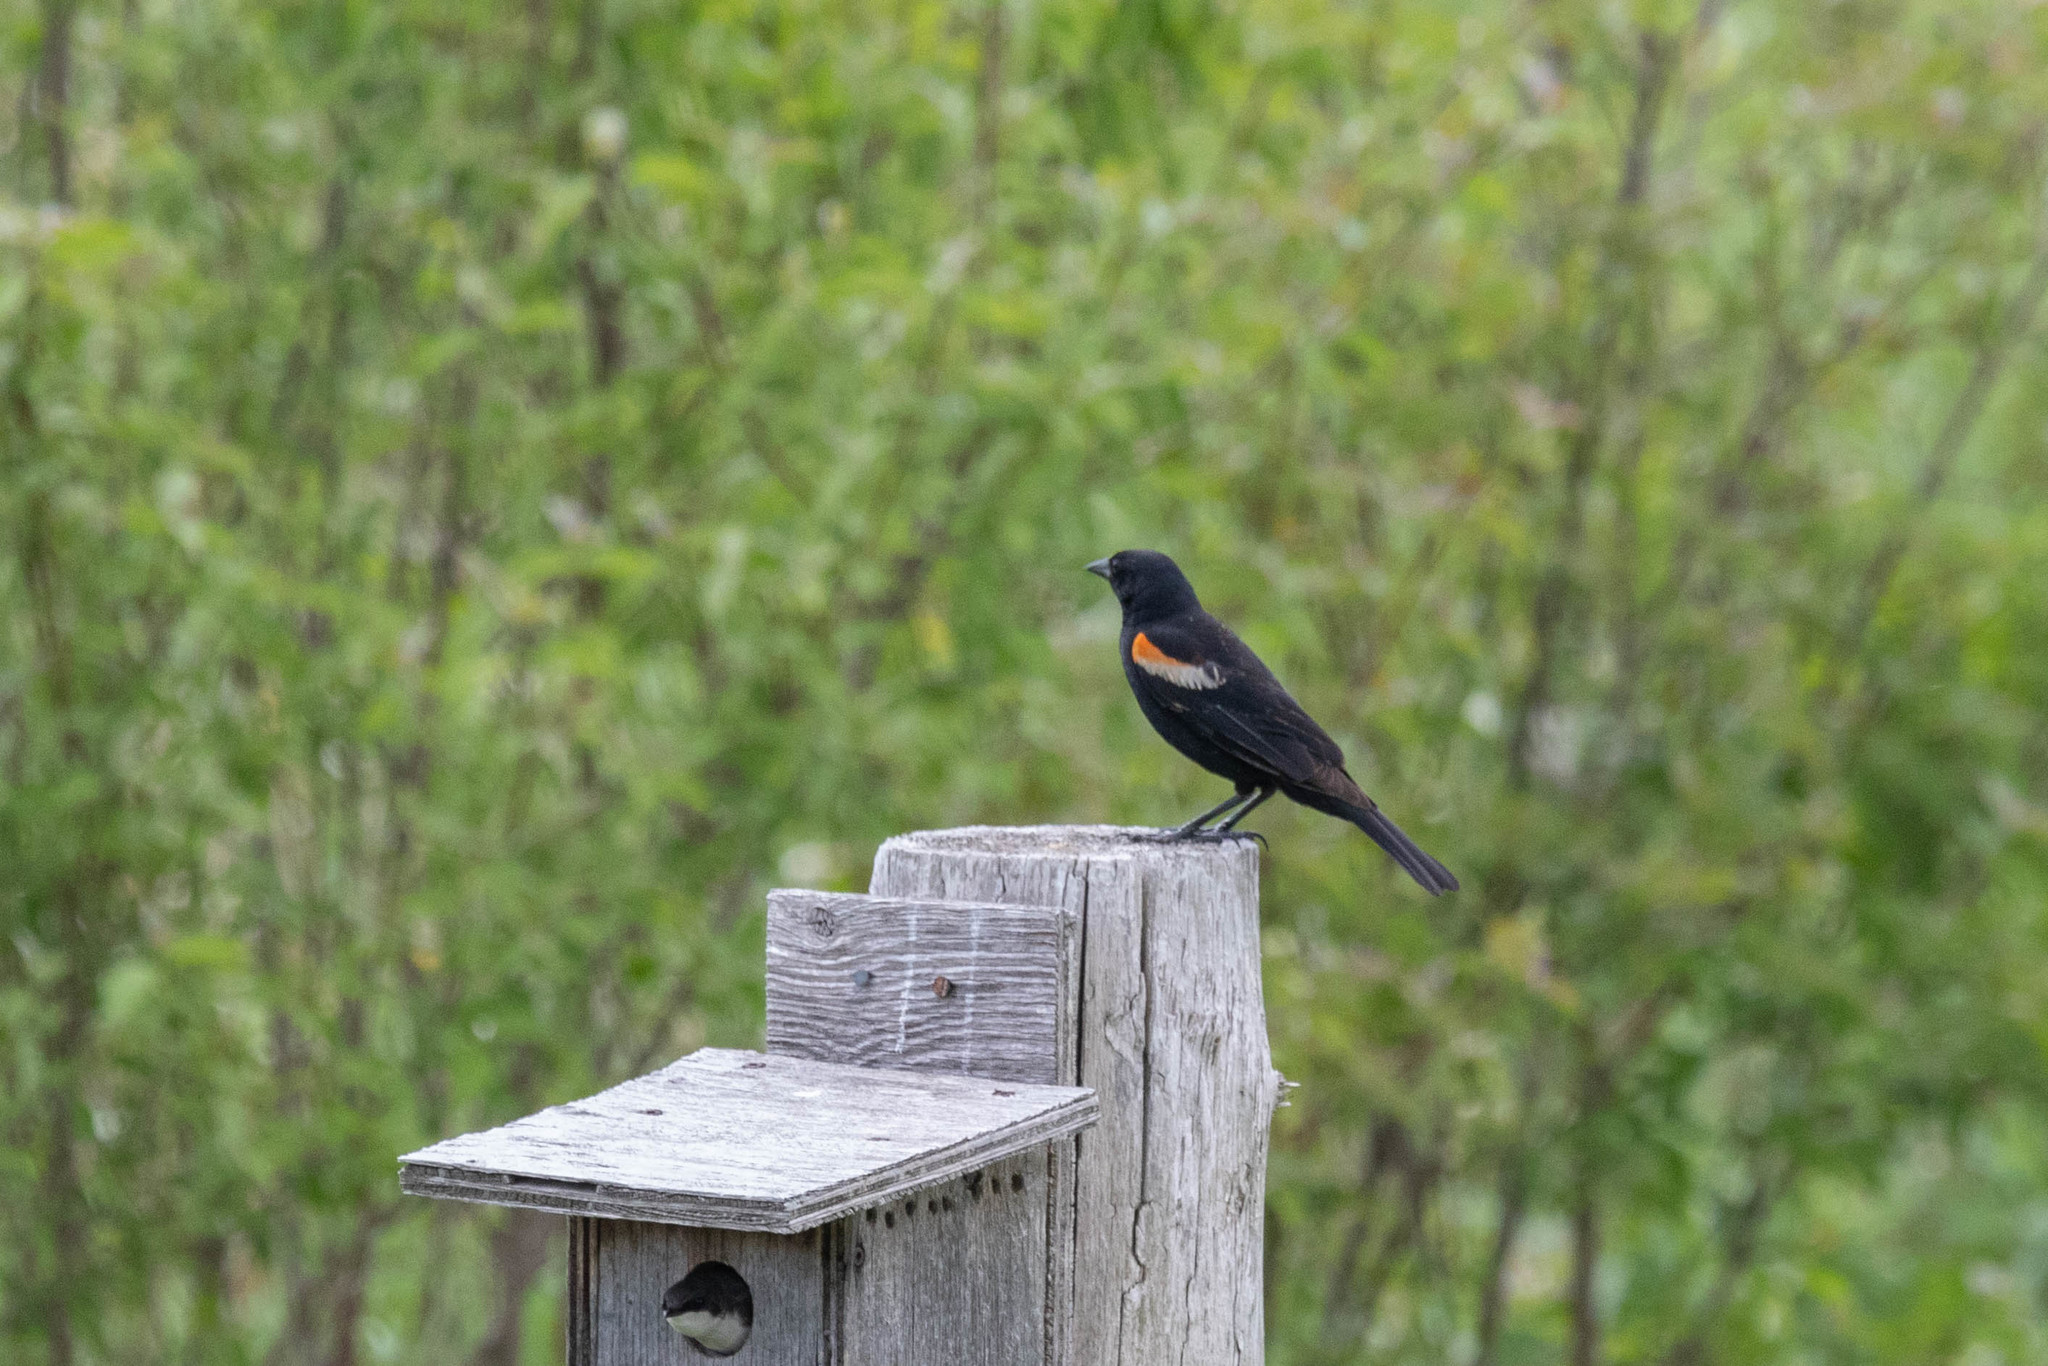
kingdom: Animalia
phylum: Chordata
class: Aves
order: Passeriformes
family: Icteridae
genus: Agelaius
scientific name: Agelaius phoeniceus
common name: Red-winged blackbird
